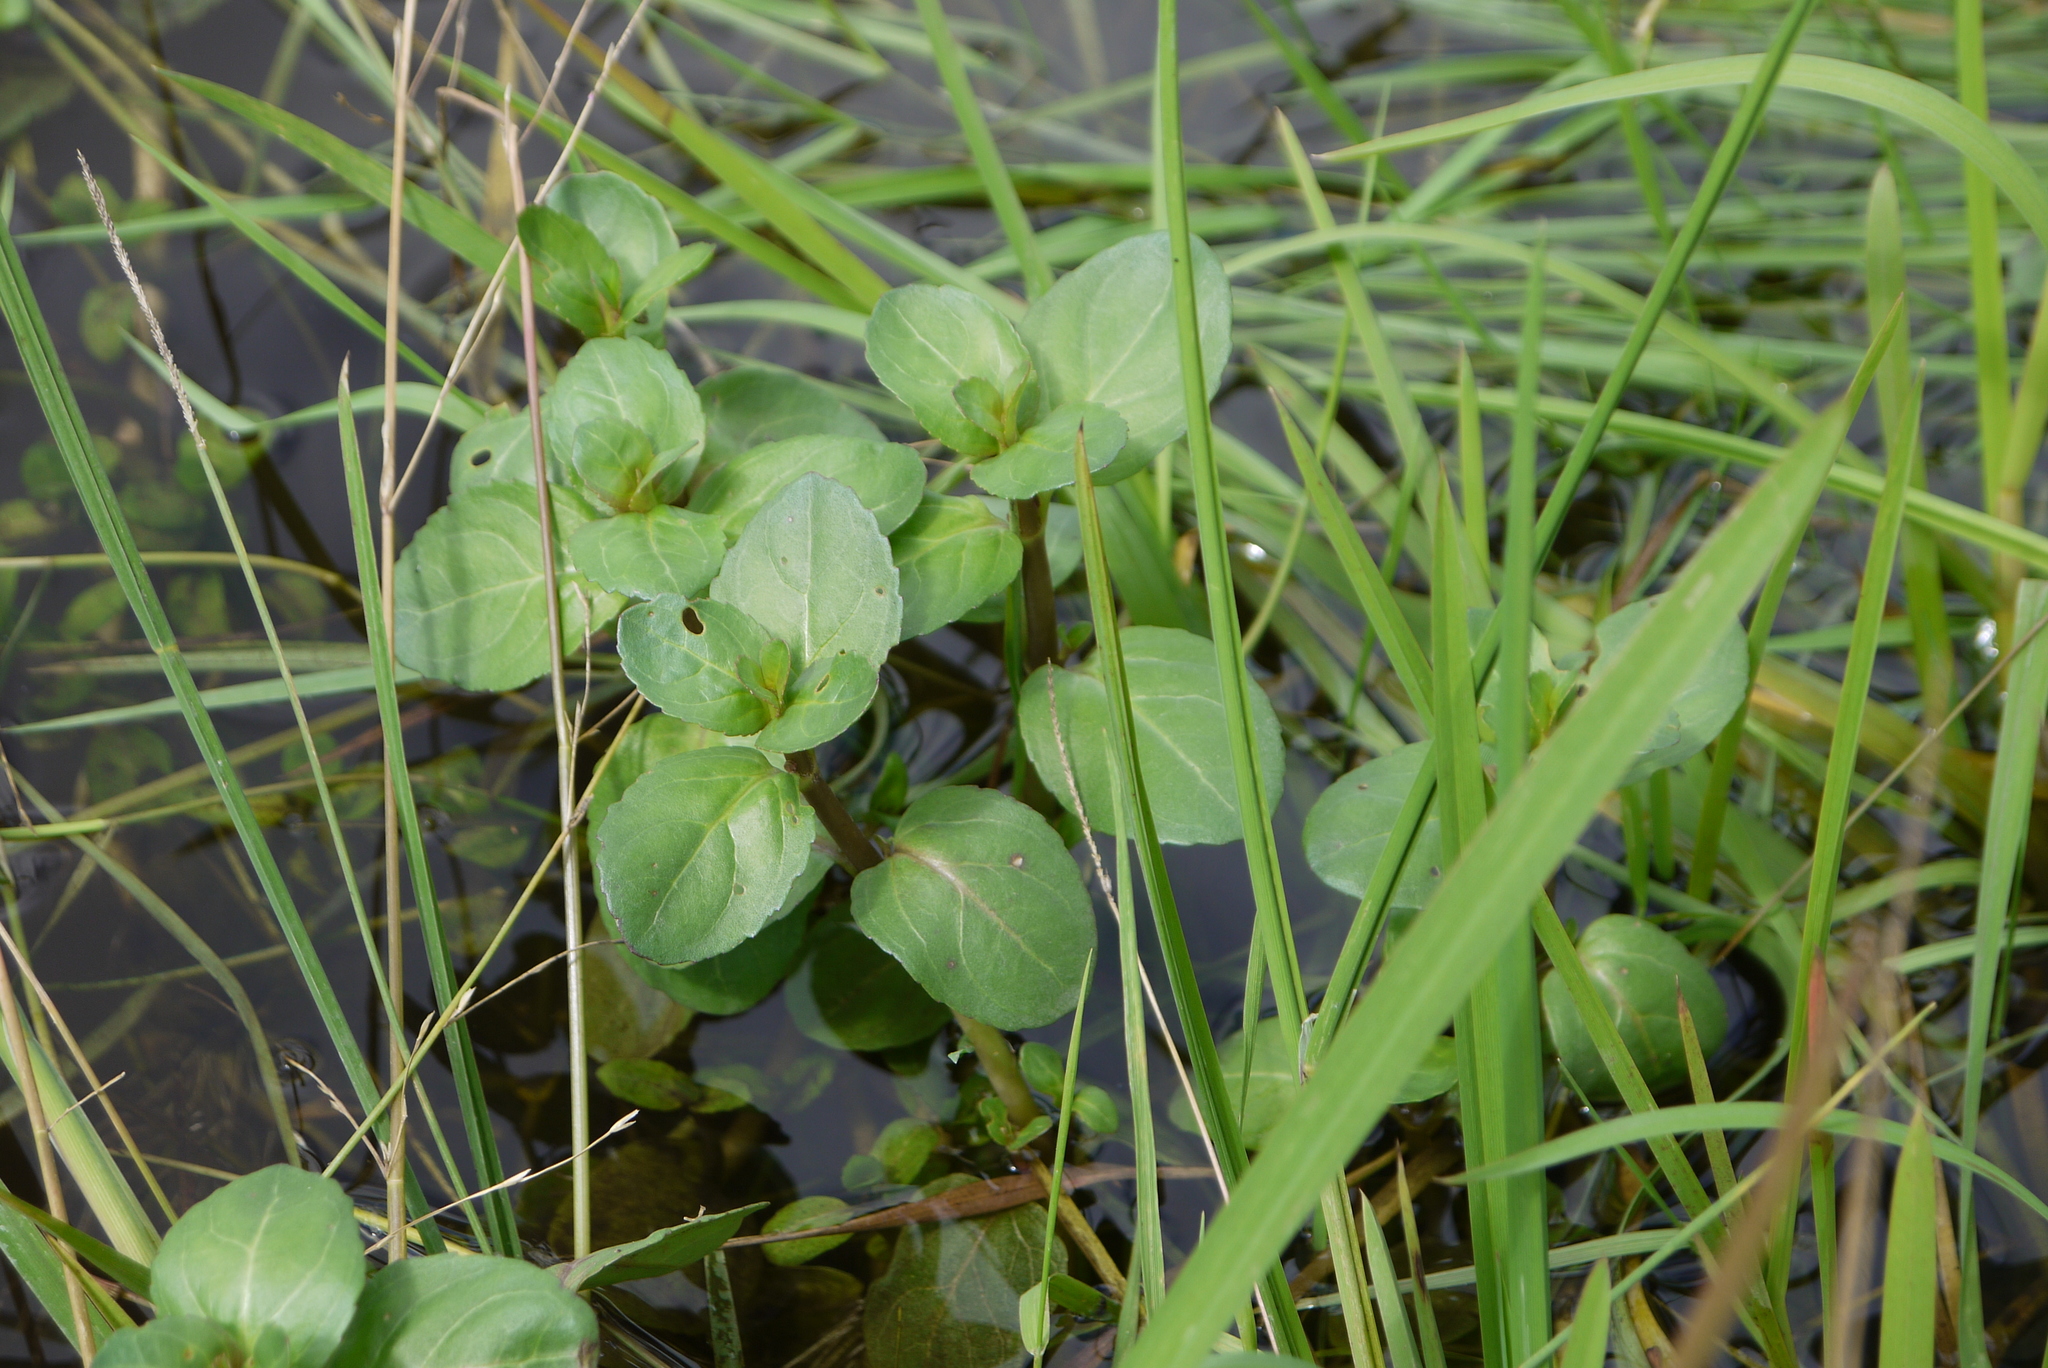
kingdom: Plantae
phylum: Tracheophyta
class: Magnoliopsida
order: Lamiales
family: Plantaginaceae
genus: Veronica
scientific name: Veronica beccabunga
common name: Brooklime
